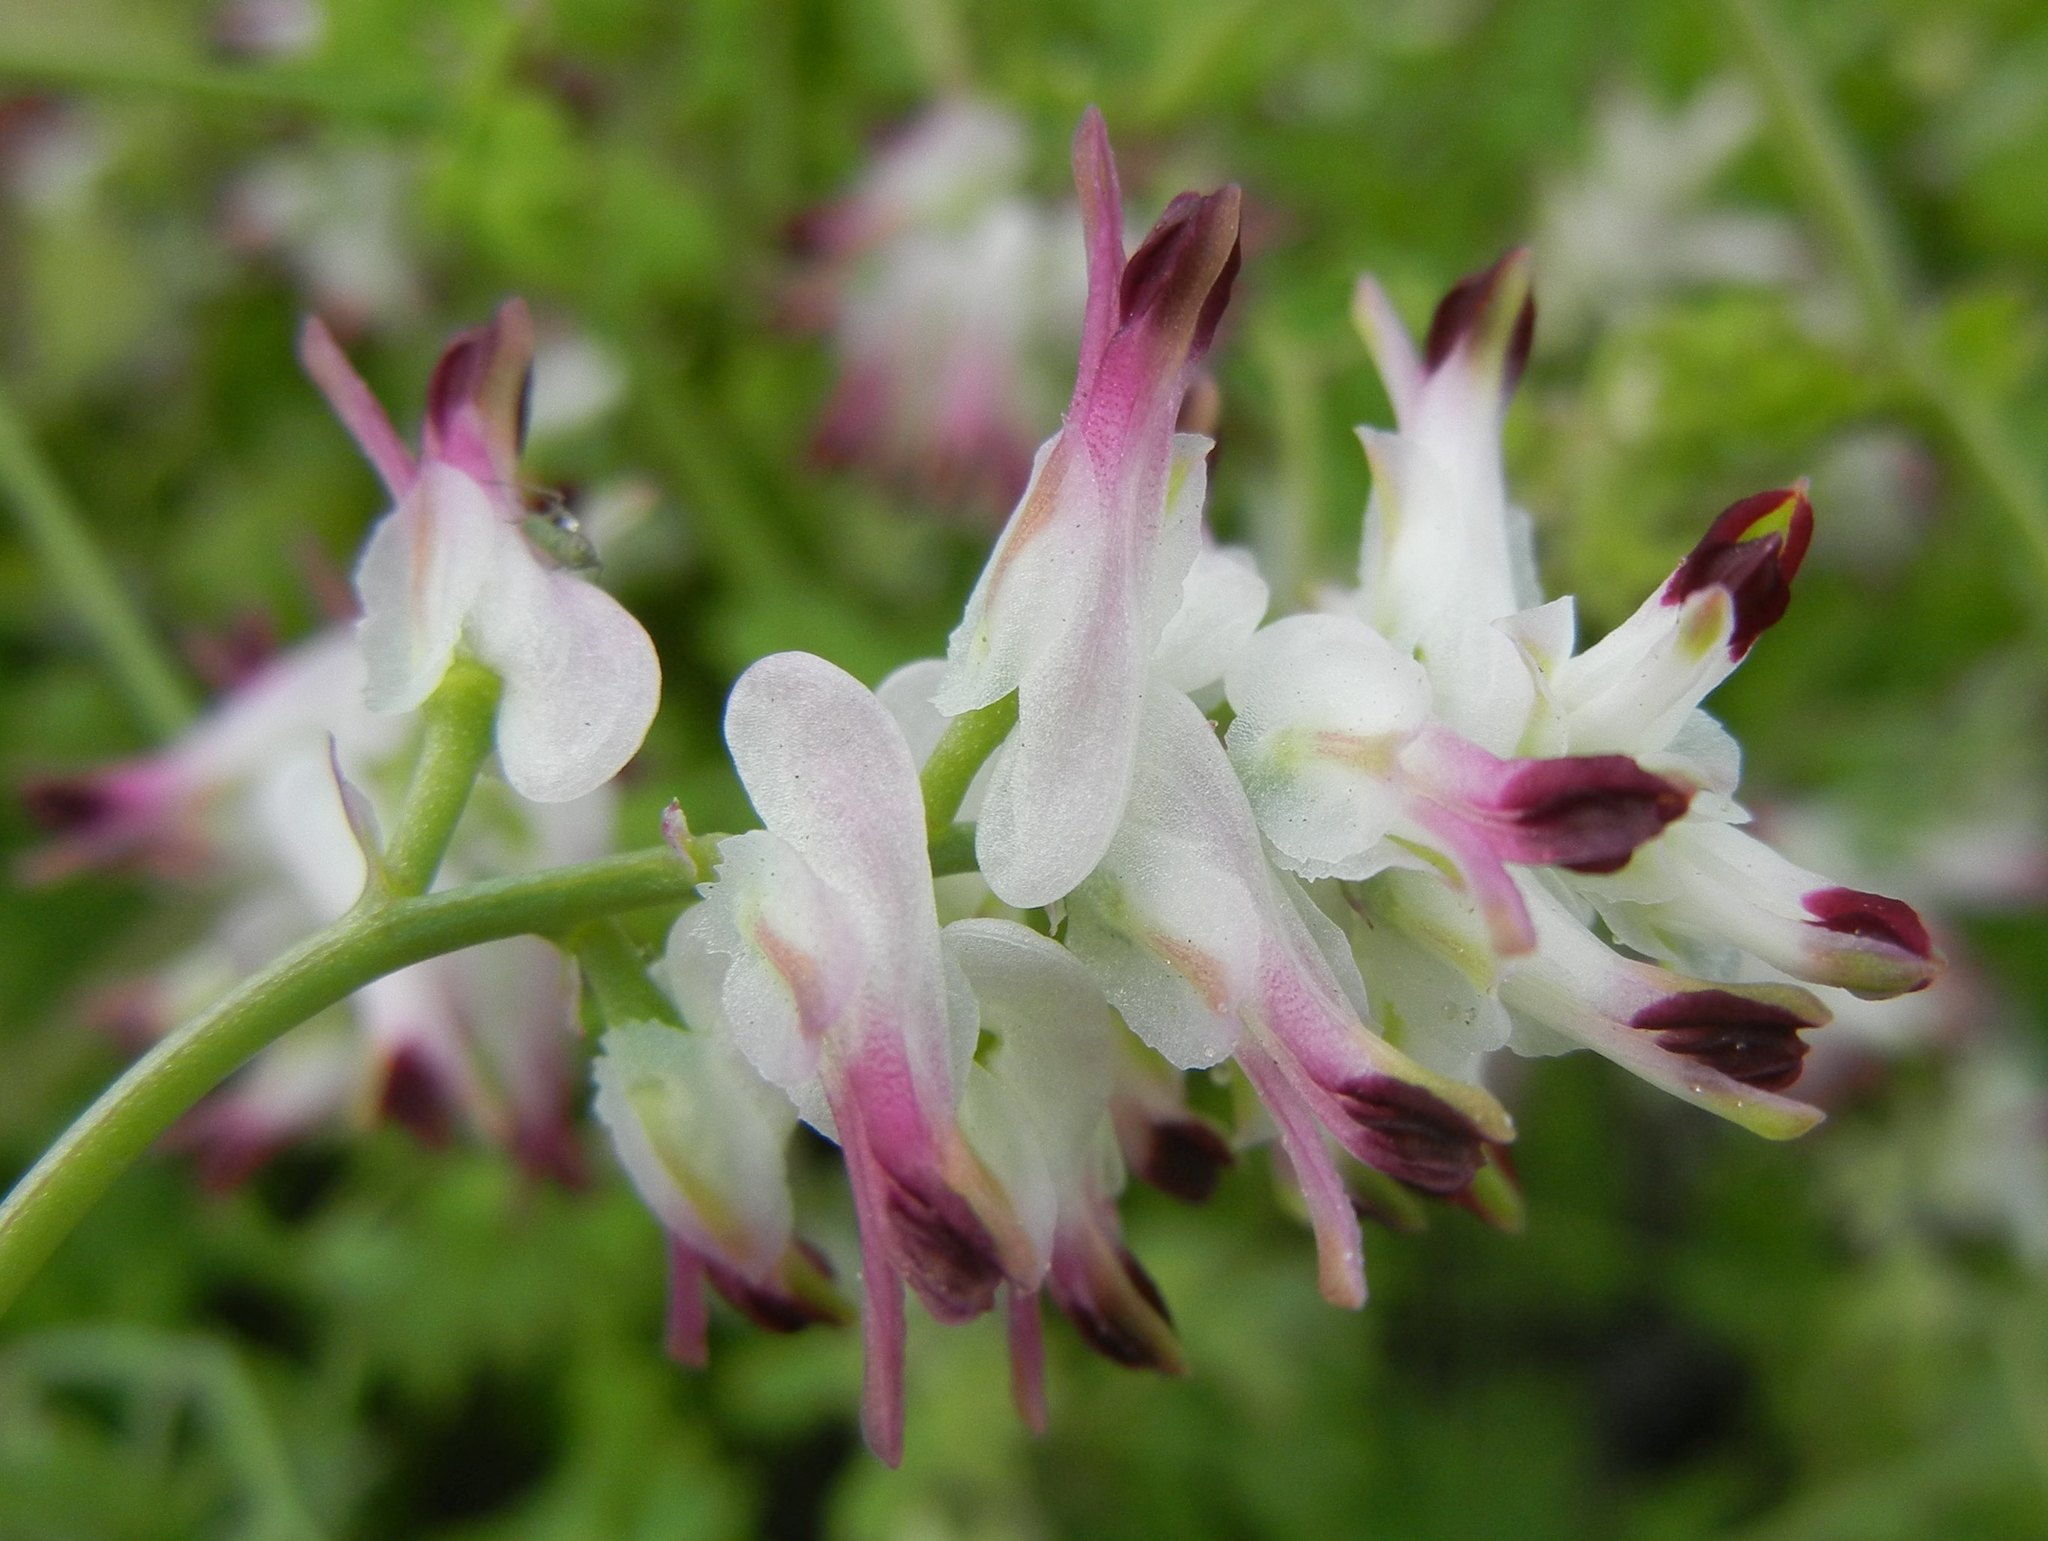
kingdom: Plantae
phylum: Tracheophyta
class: Magnoliopsida
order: Ranunculales
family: Papaveraceae
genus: Fumaria
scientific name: Fumaria capreolata
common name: White ramping-fumitory
